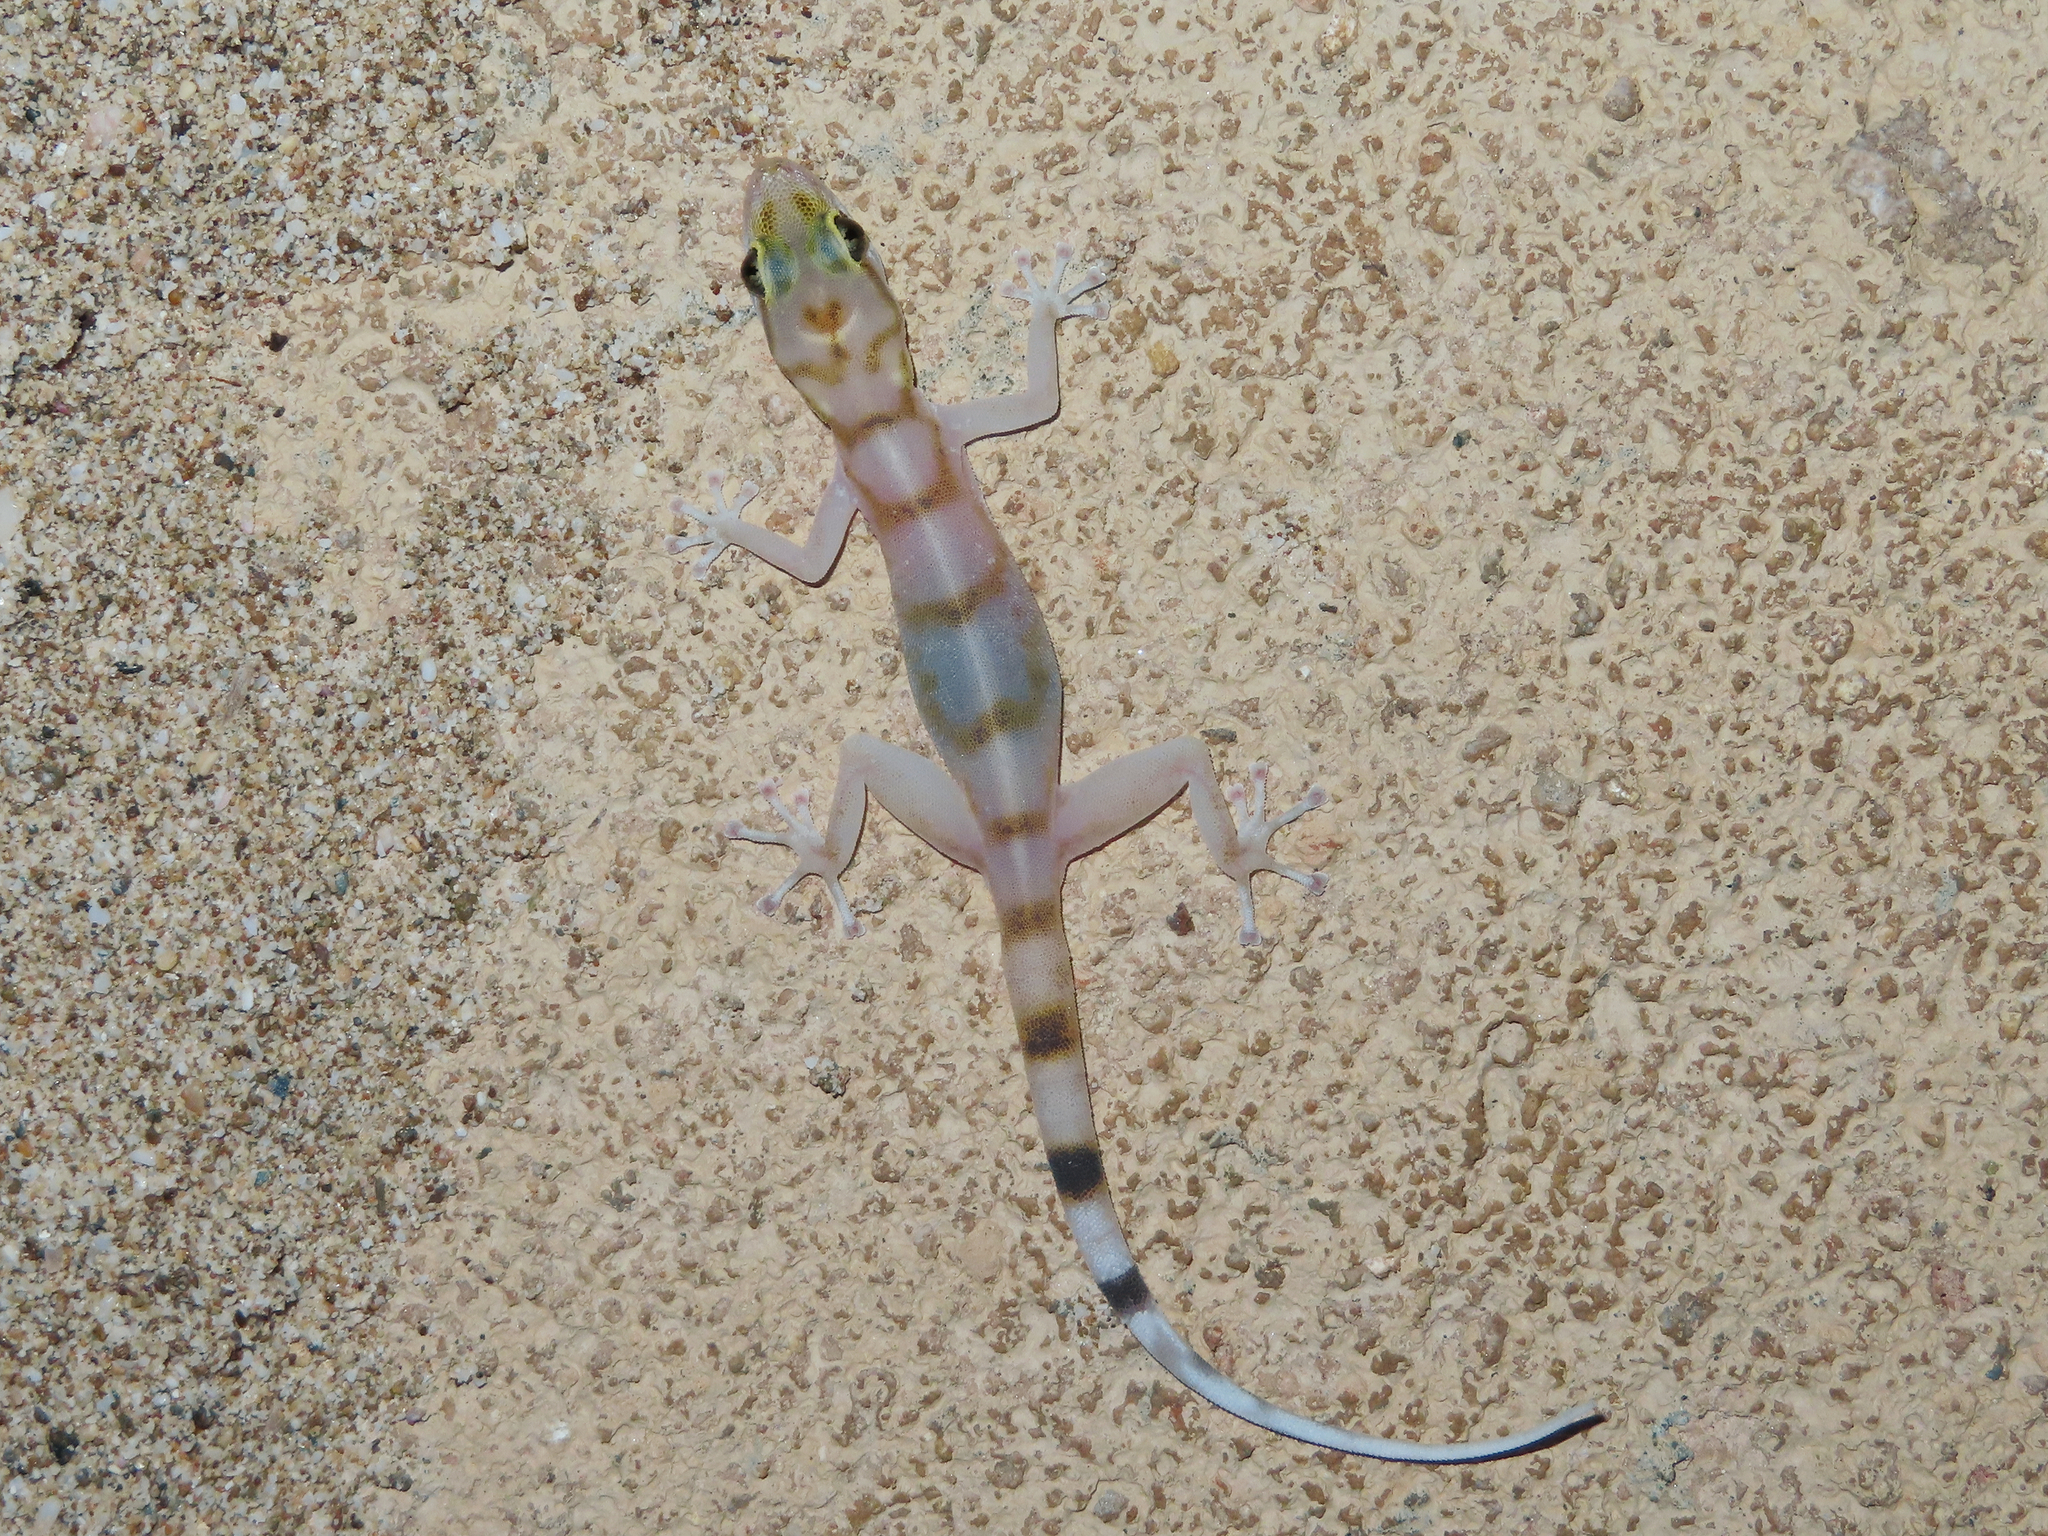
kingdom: Animalia
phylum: Chordata
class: Squamata
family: Phyllodactylidae
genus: Asaccus
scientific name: Asaccus gallagheri
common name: Gallagher's gecko
